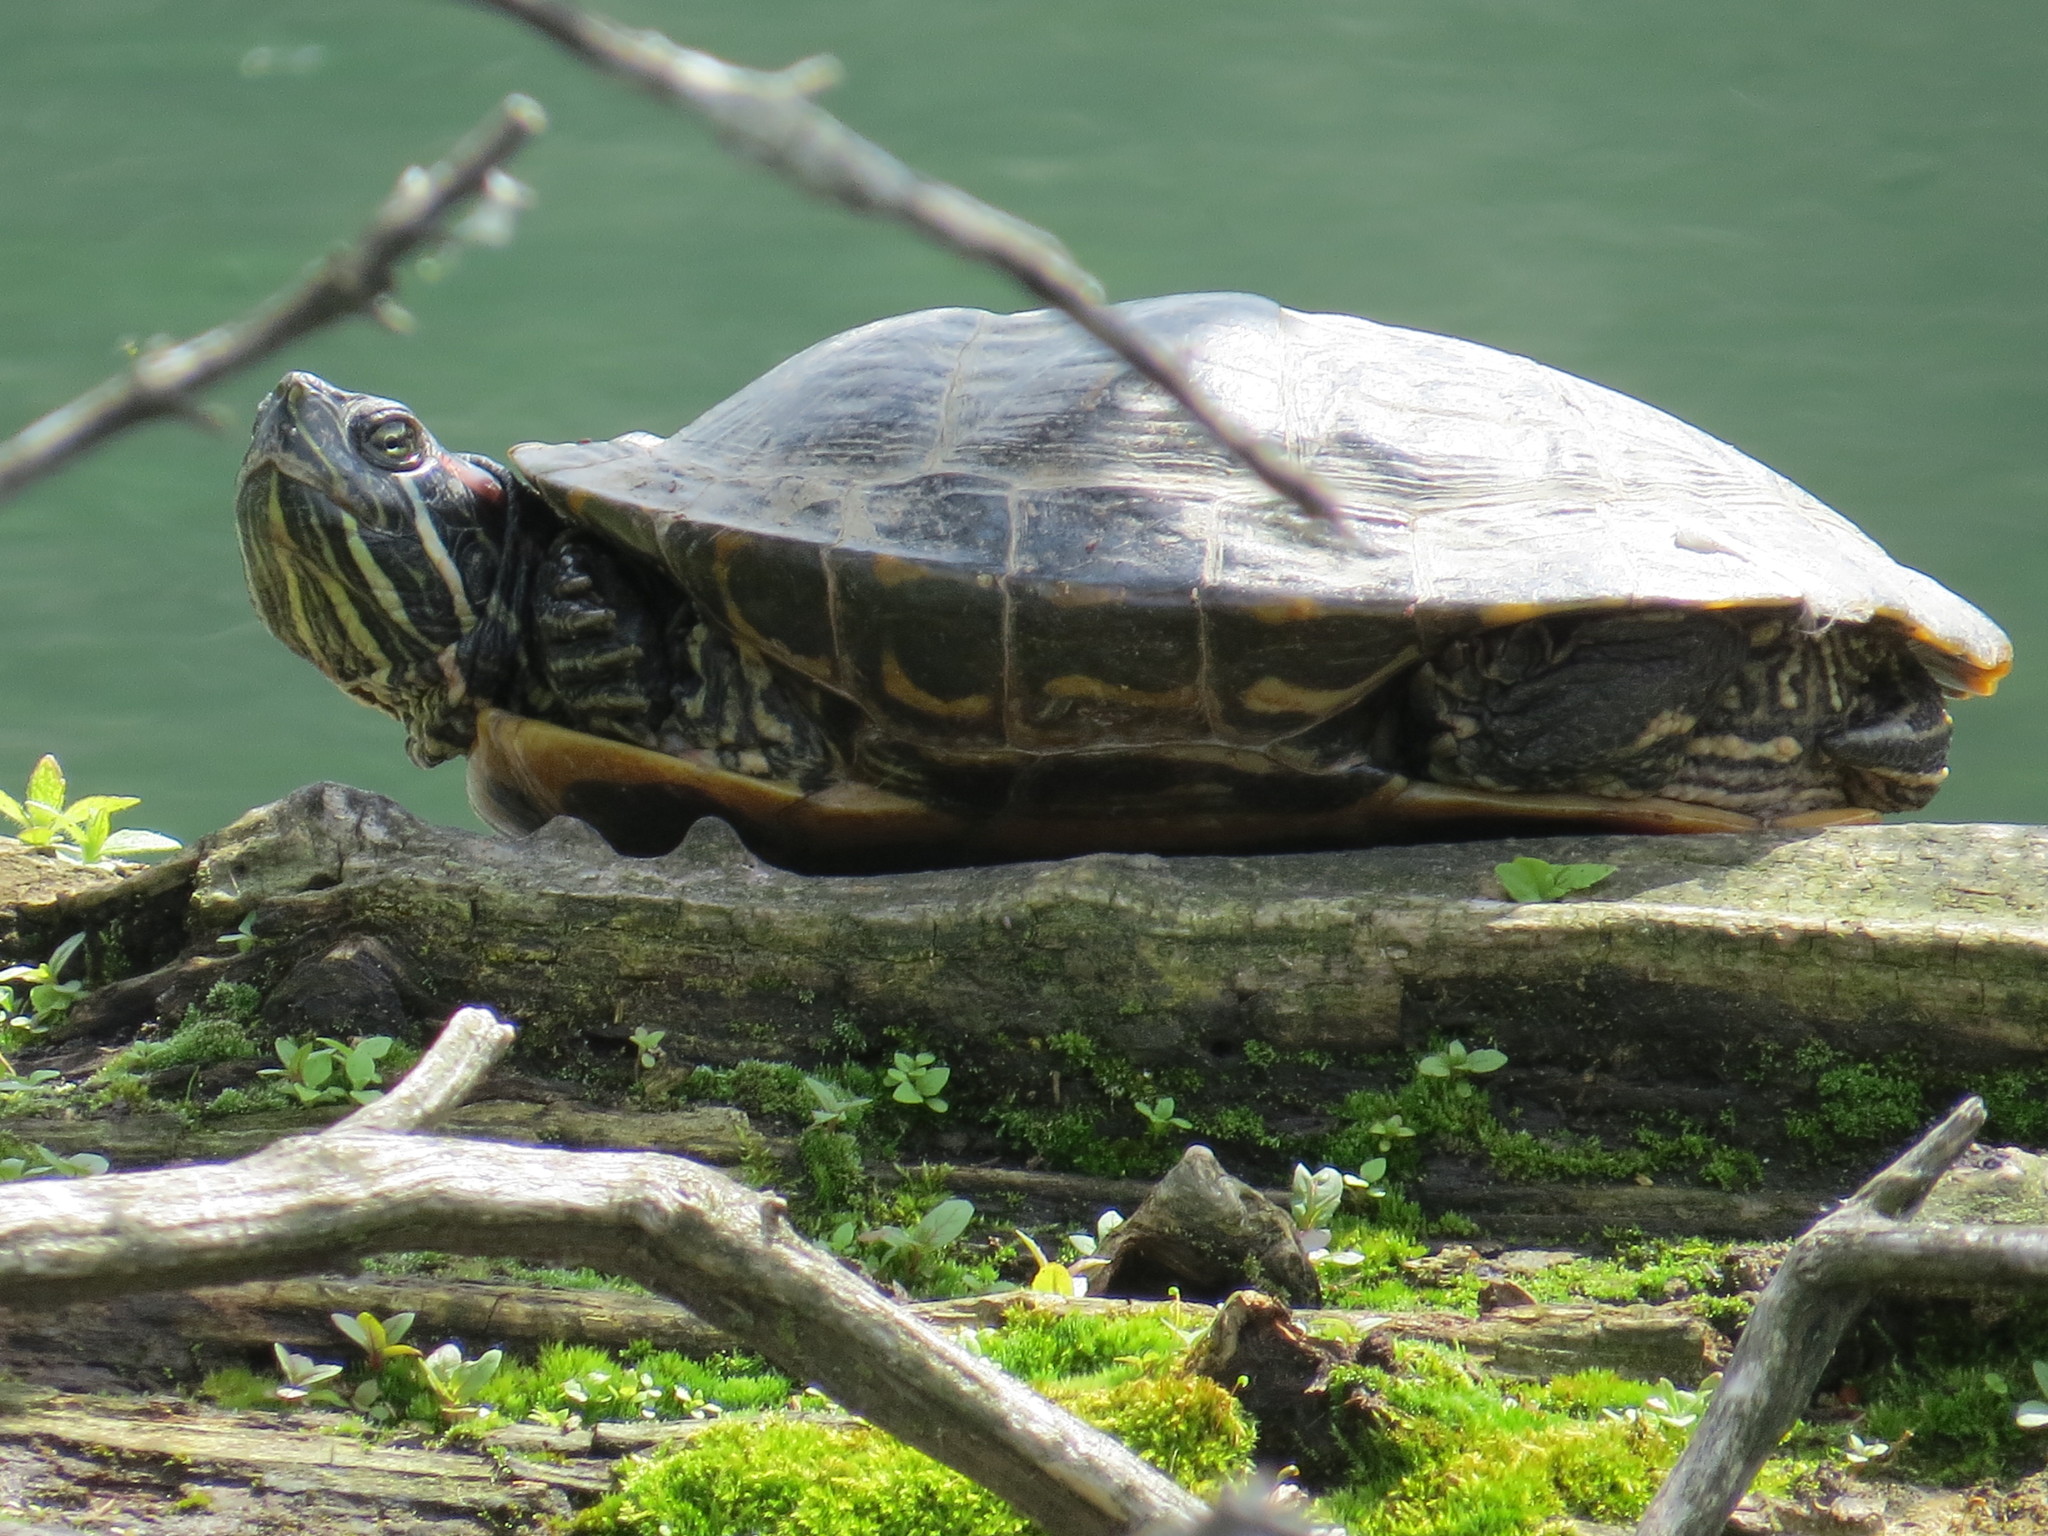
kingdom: Animalia
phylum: Chordata
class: Testudines
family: Emydidae
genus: Trachemys
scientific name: Trachemys scripta
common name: Slider
